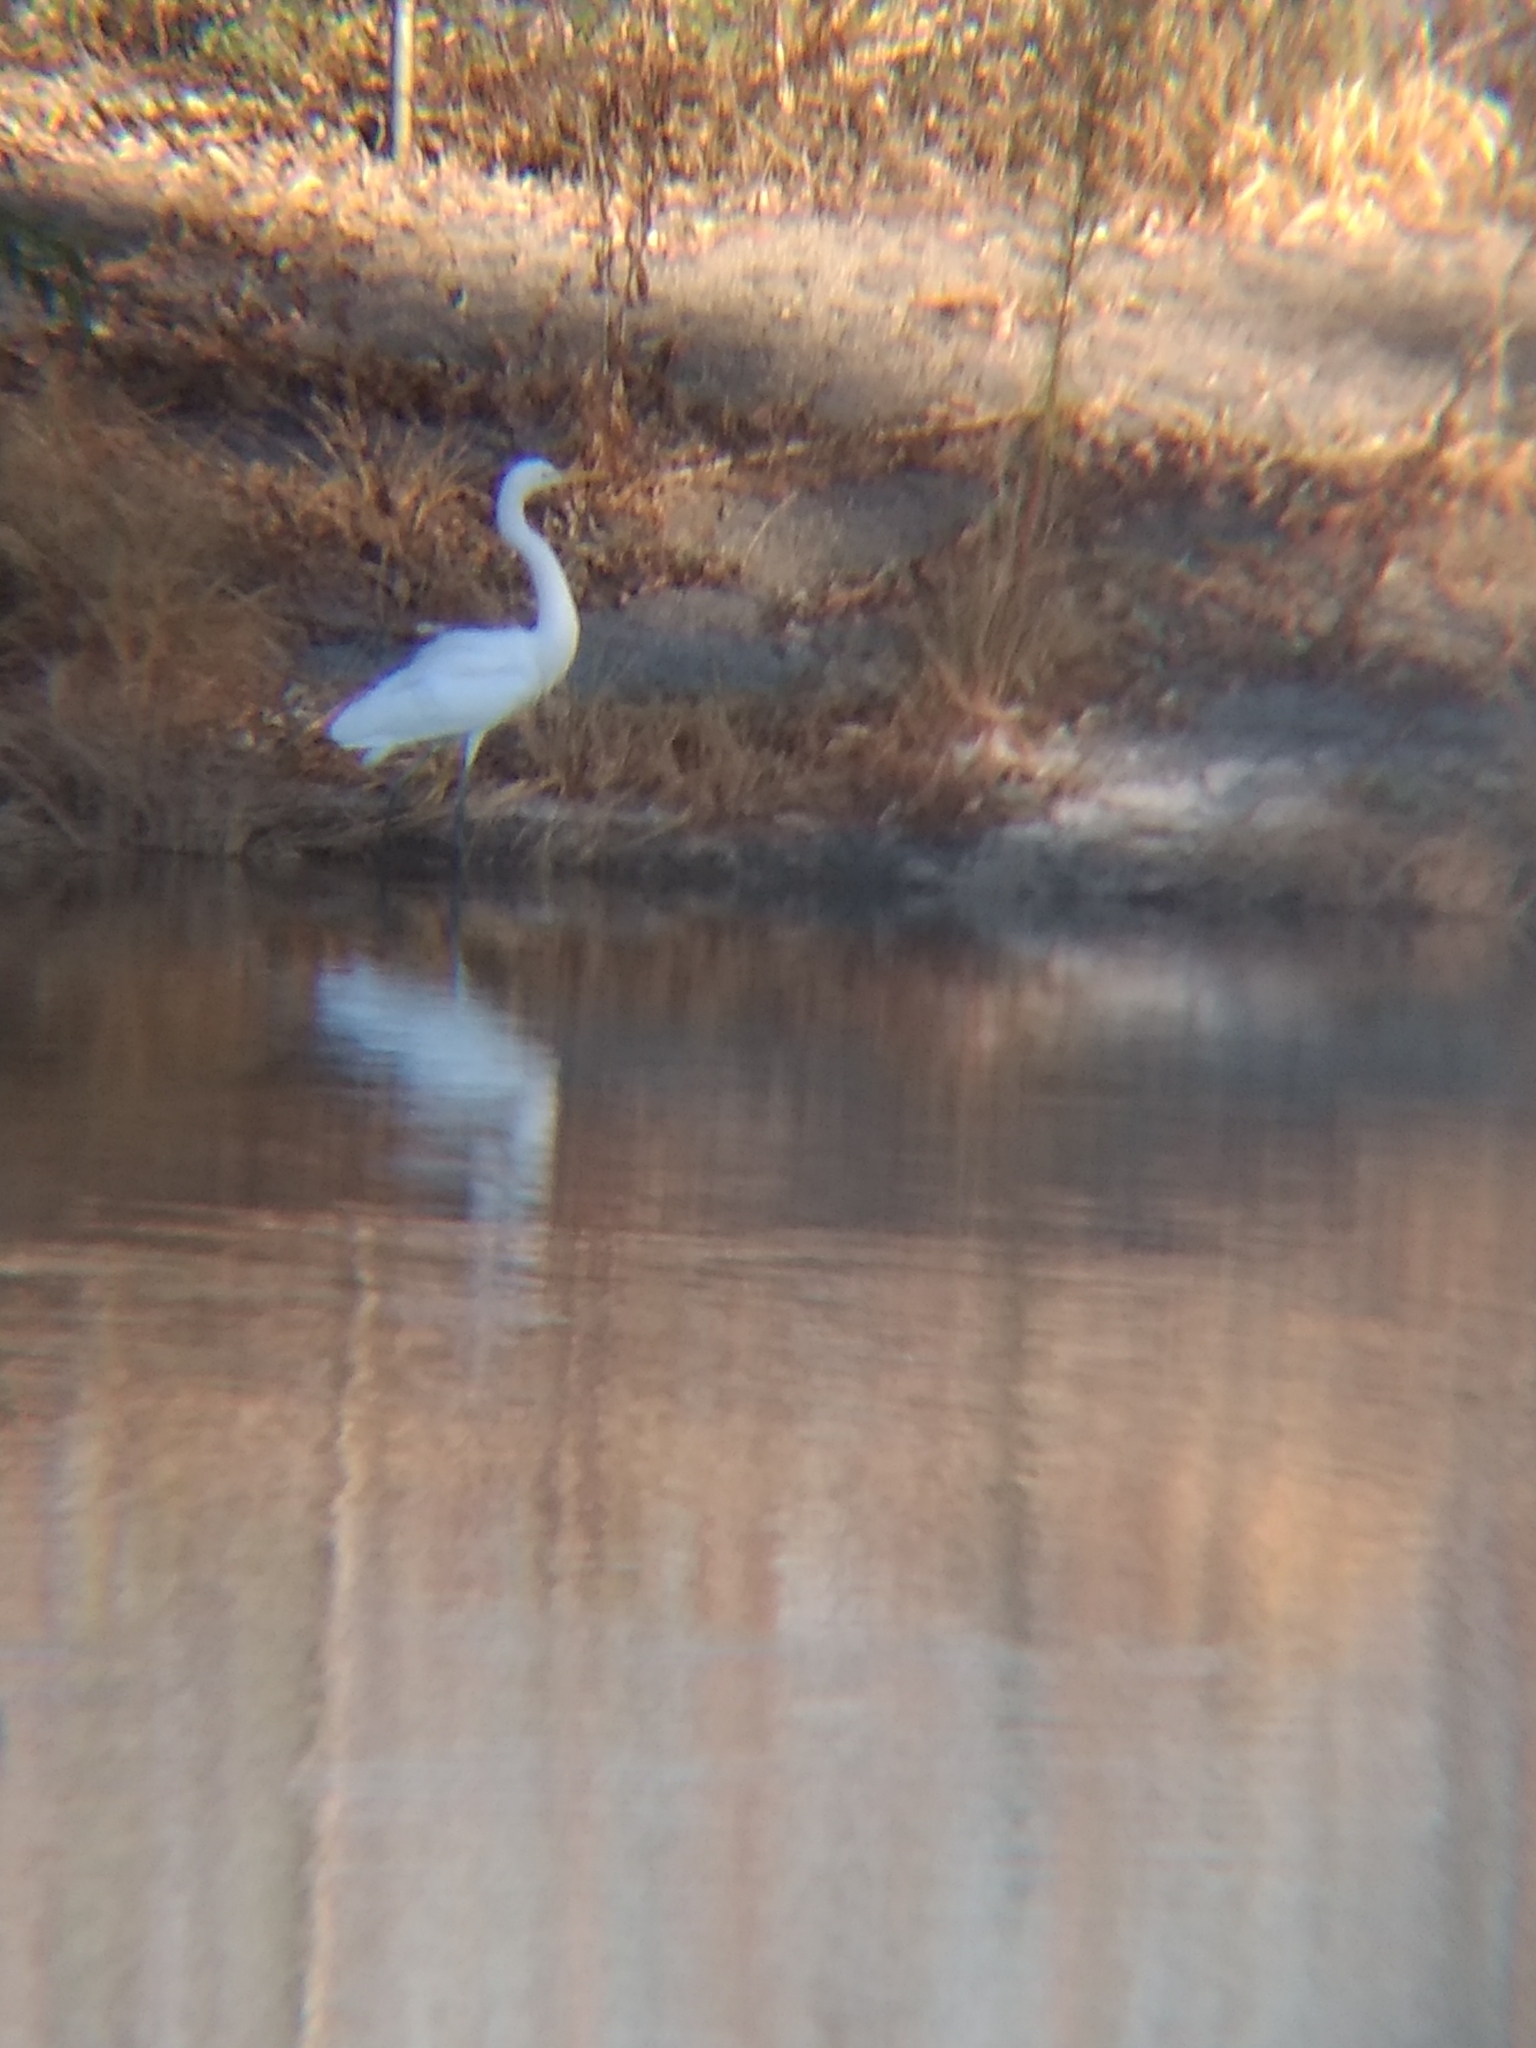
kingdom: Animalia
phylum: Chordata
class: Aves
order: Pelecaniformes
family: Ardeidae
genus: Ardea
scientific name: Ardea alba
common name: Great egret
